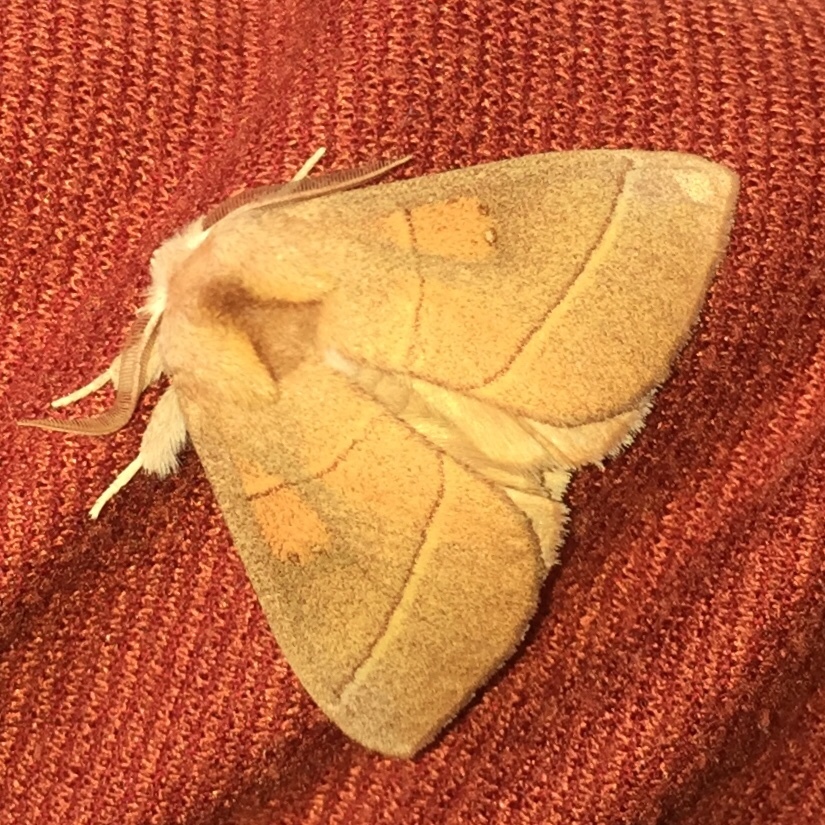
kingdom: Animalia
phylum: Arthropoda
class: Insecta
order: Lepidoptera
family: Notodontidae
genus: Nadata
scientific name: Nadata gibbosa
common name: White-dotted prominent
